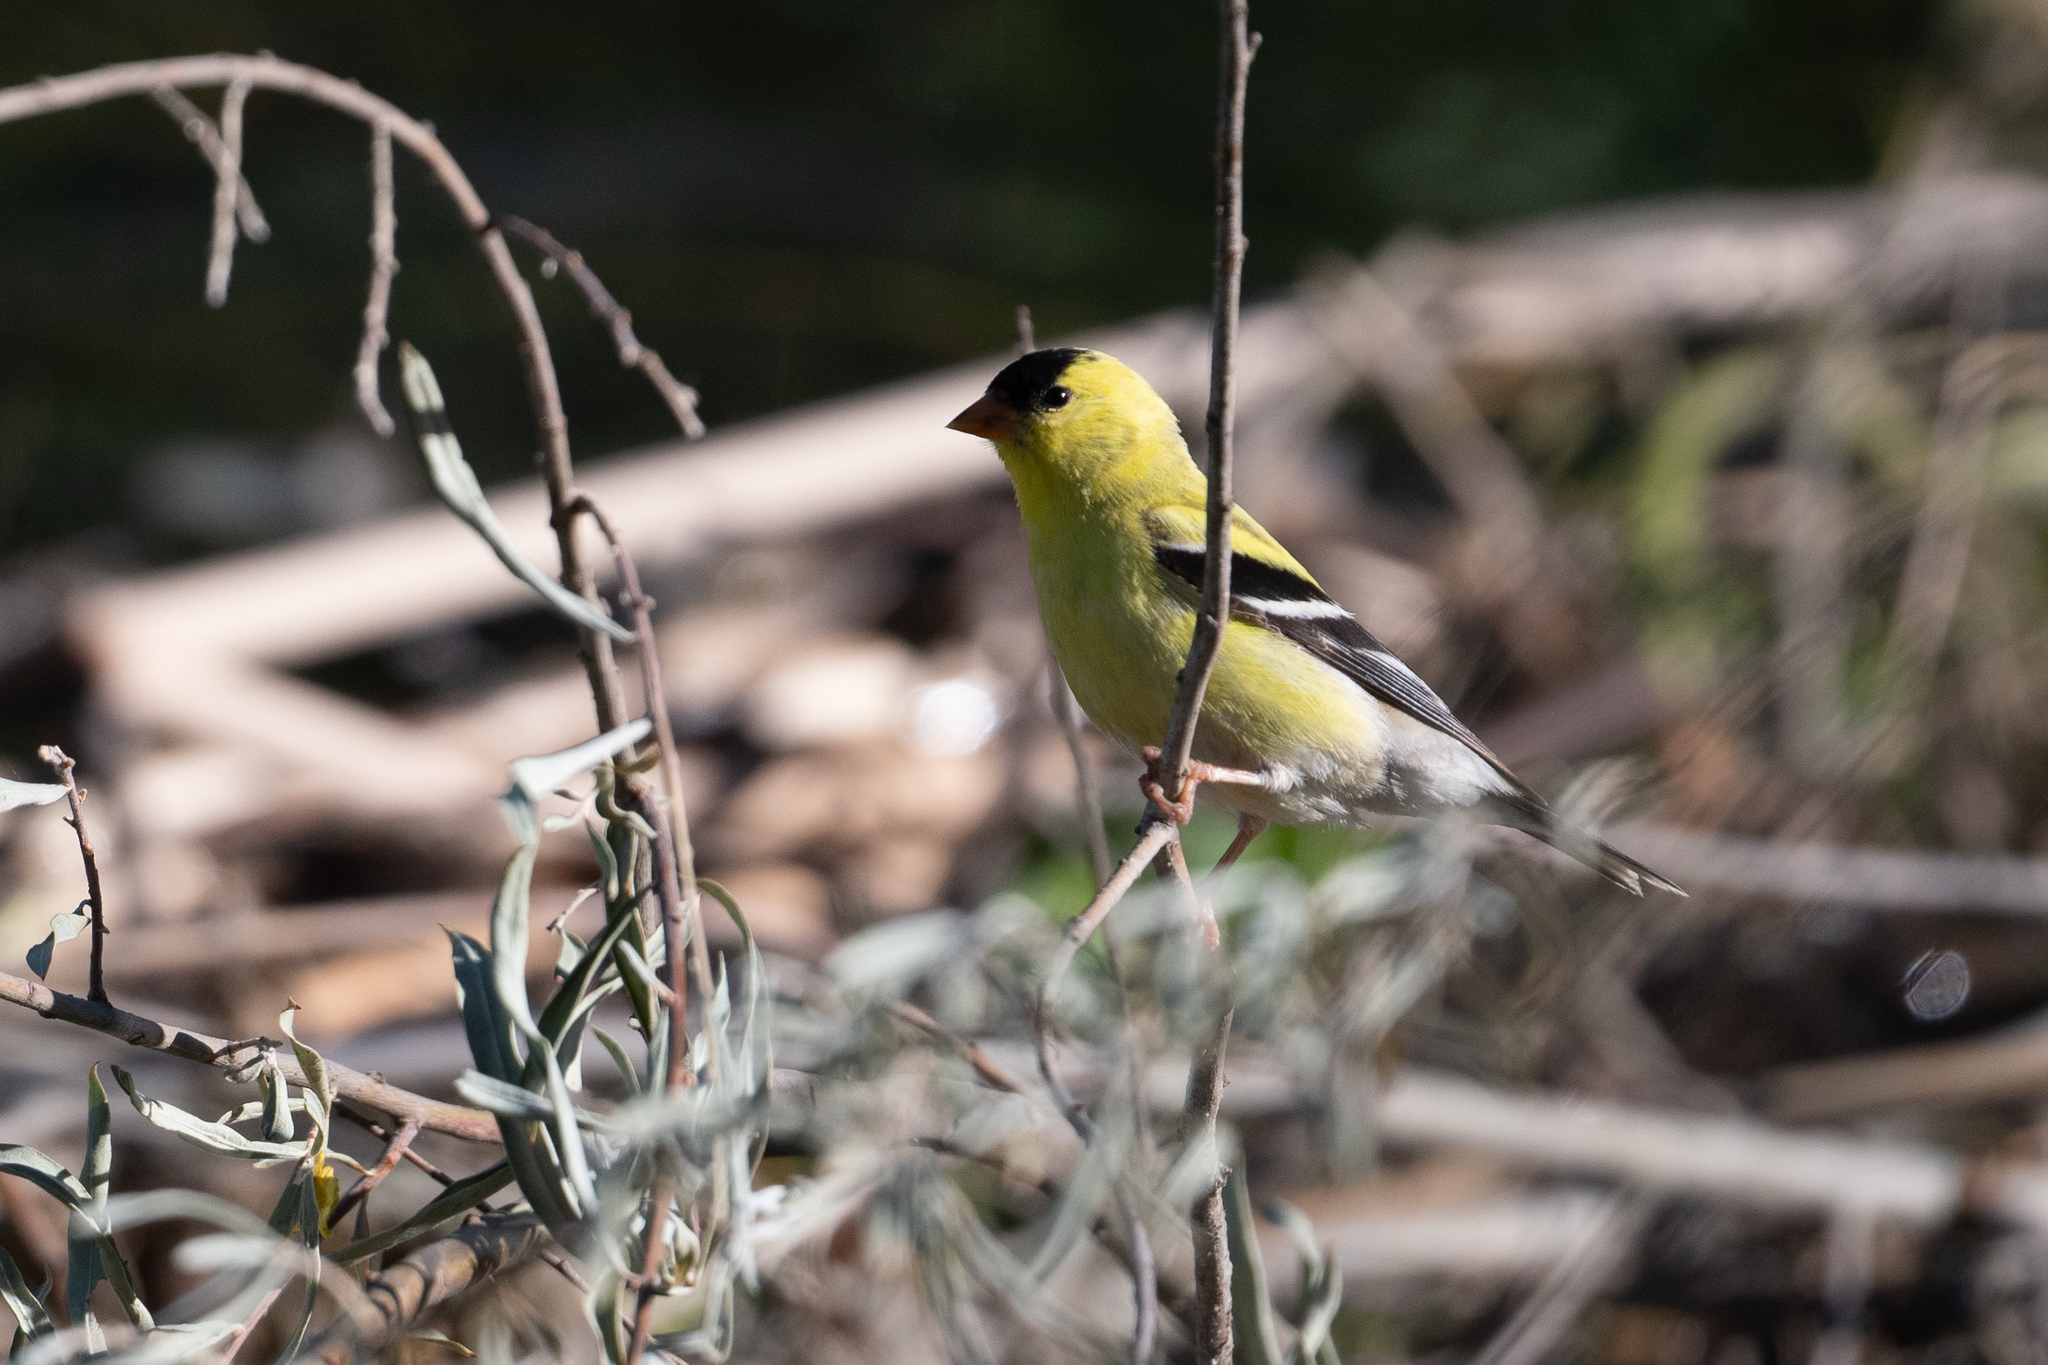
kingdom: Animalia
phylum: Chordata
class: Aves
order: Passeriformes
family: Fringillidae
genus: Spinus
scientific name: Spinus tristis
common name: American goldfinch
